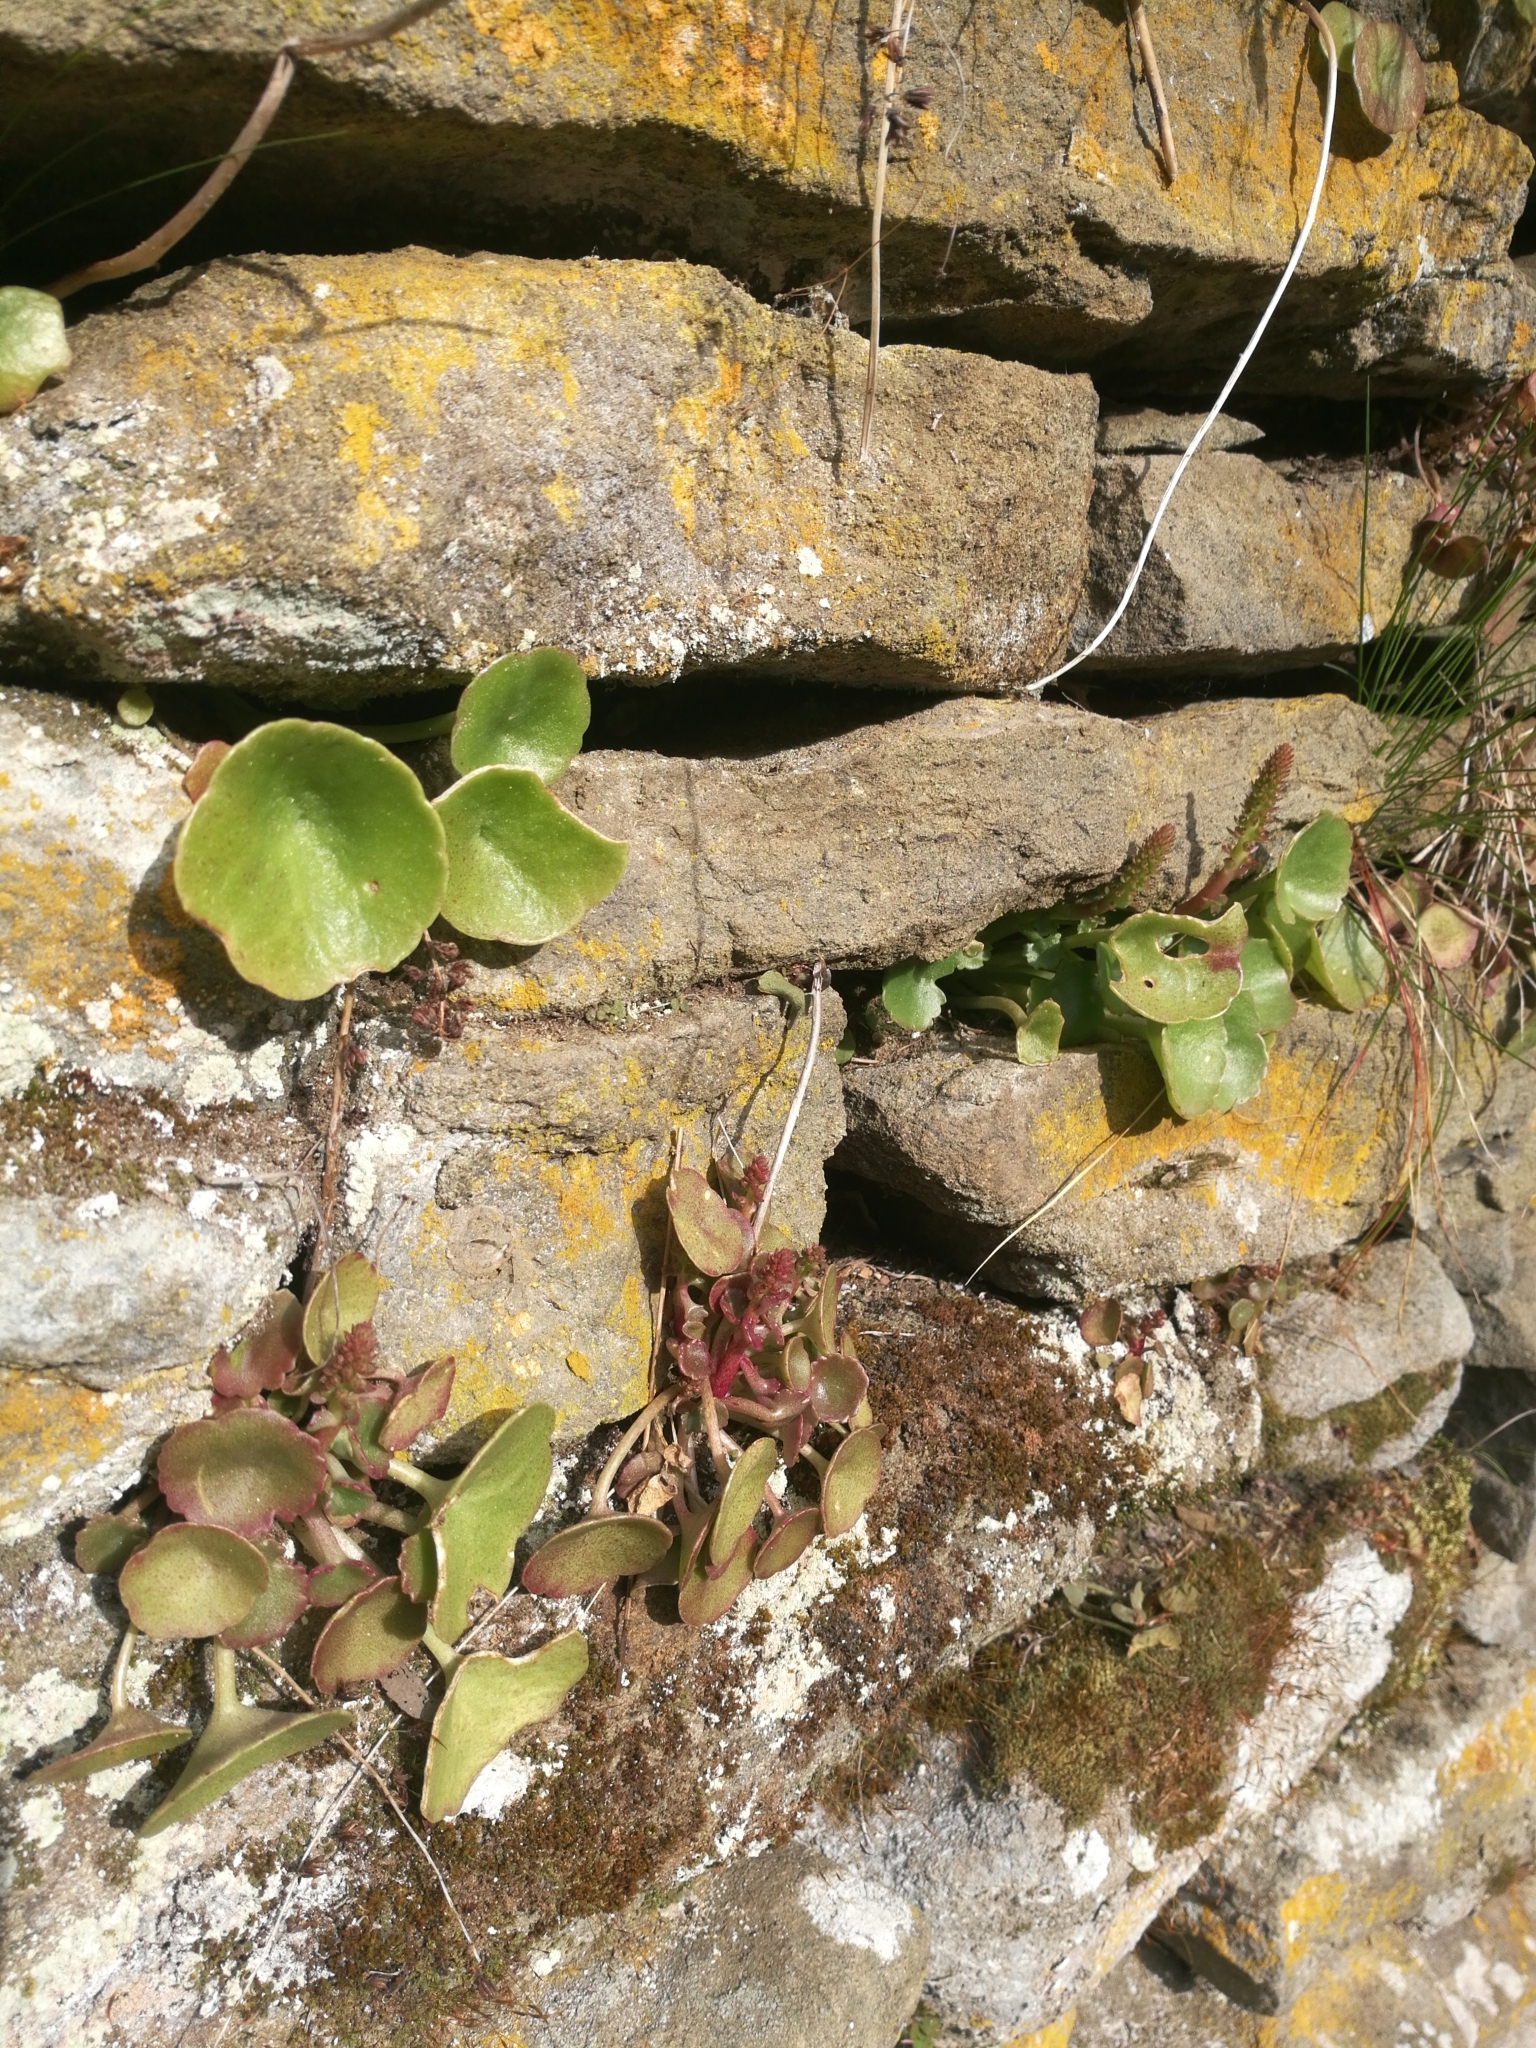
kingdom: Plantae
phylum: Tracheophyta
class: Magnoliopsida
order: Saxifragales
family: Crassulaceae
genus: Umbilicus
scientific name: Umbilicus rupestris
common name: Navelwort
